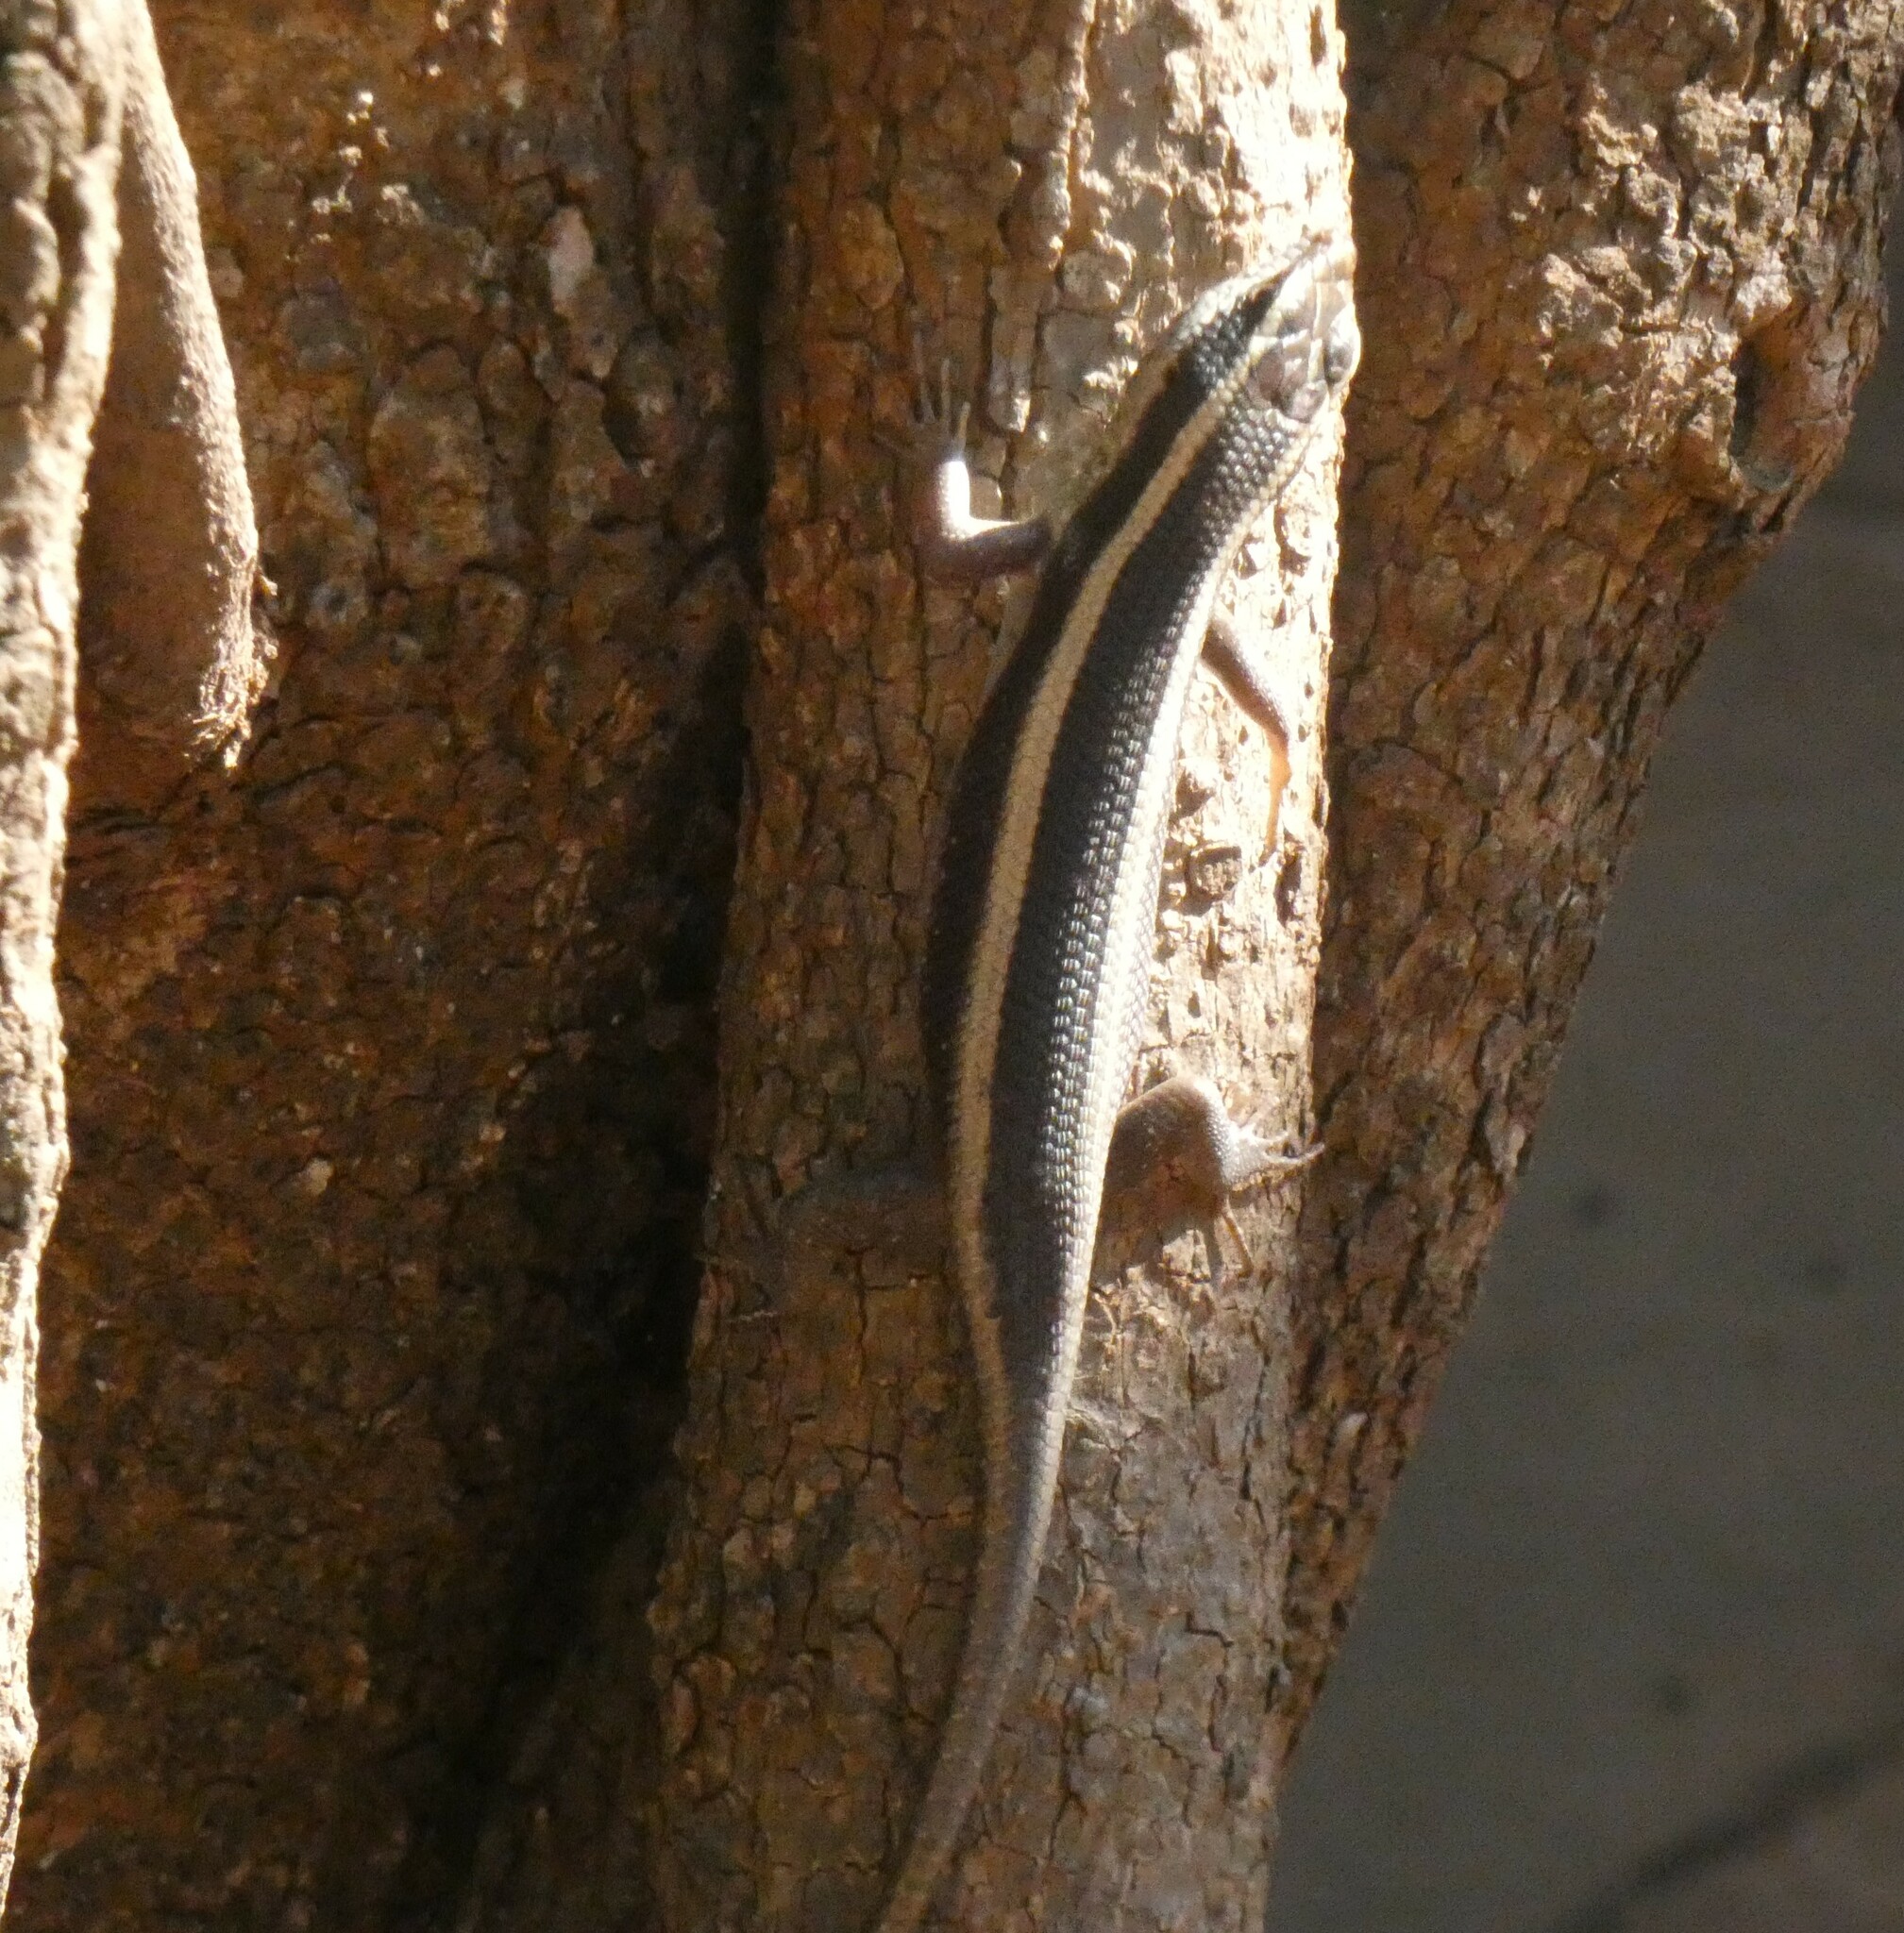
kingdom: Animalia
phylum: Chordata
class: Squamata
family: Scincidae
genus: Trachylepis
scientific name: Trachylepis striata
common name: African striped mabuya
